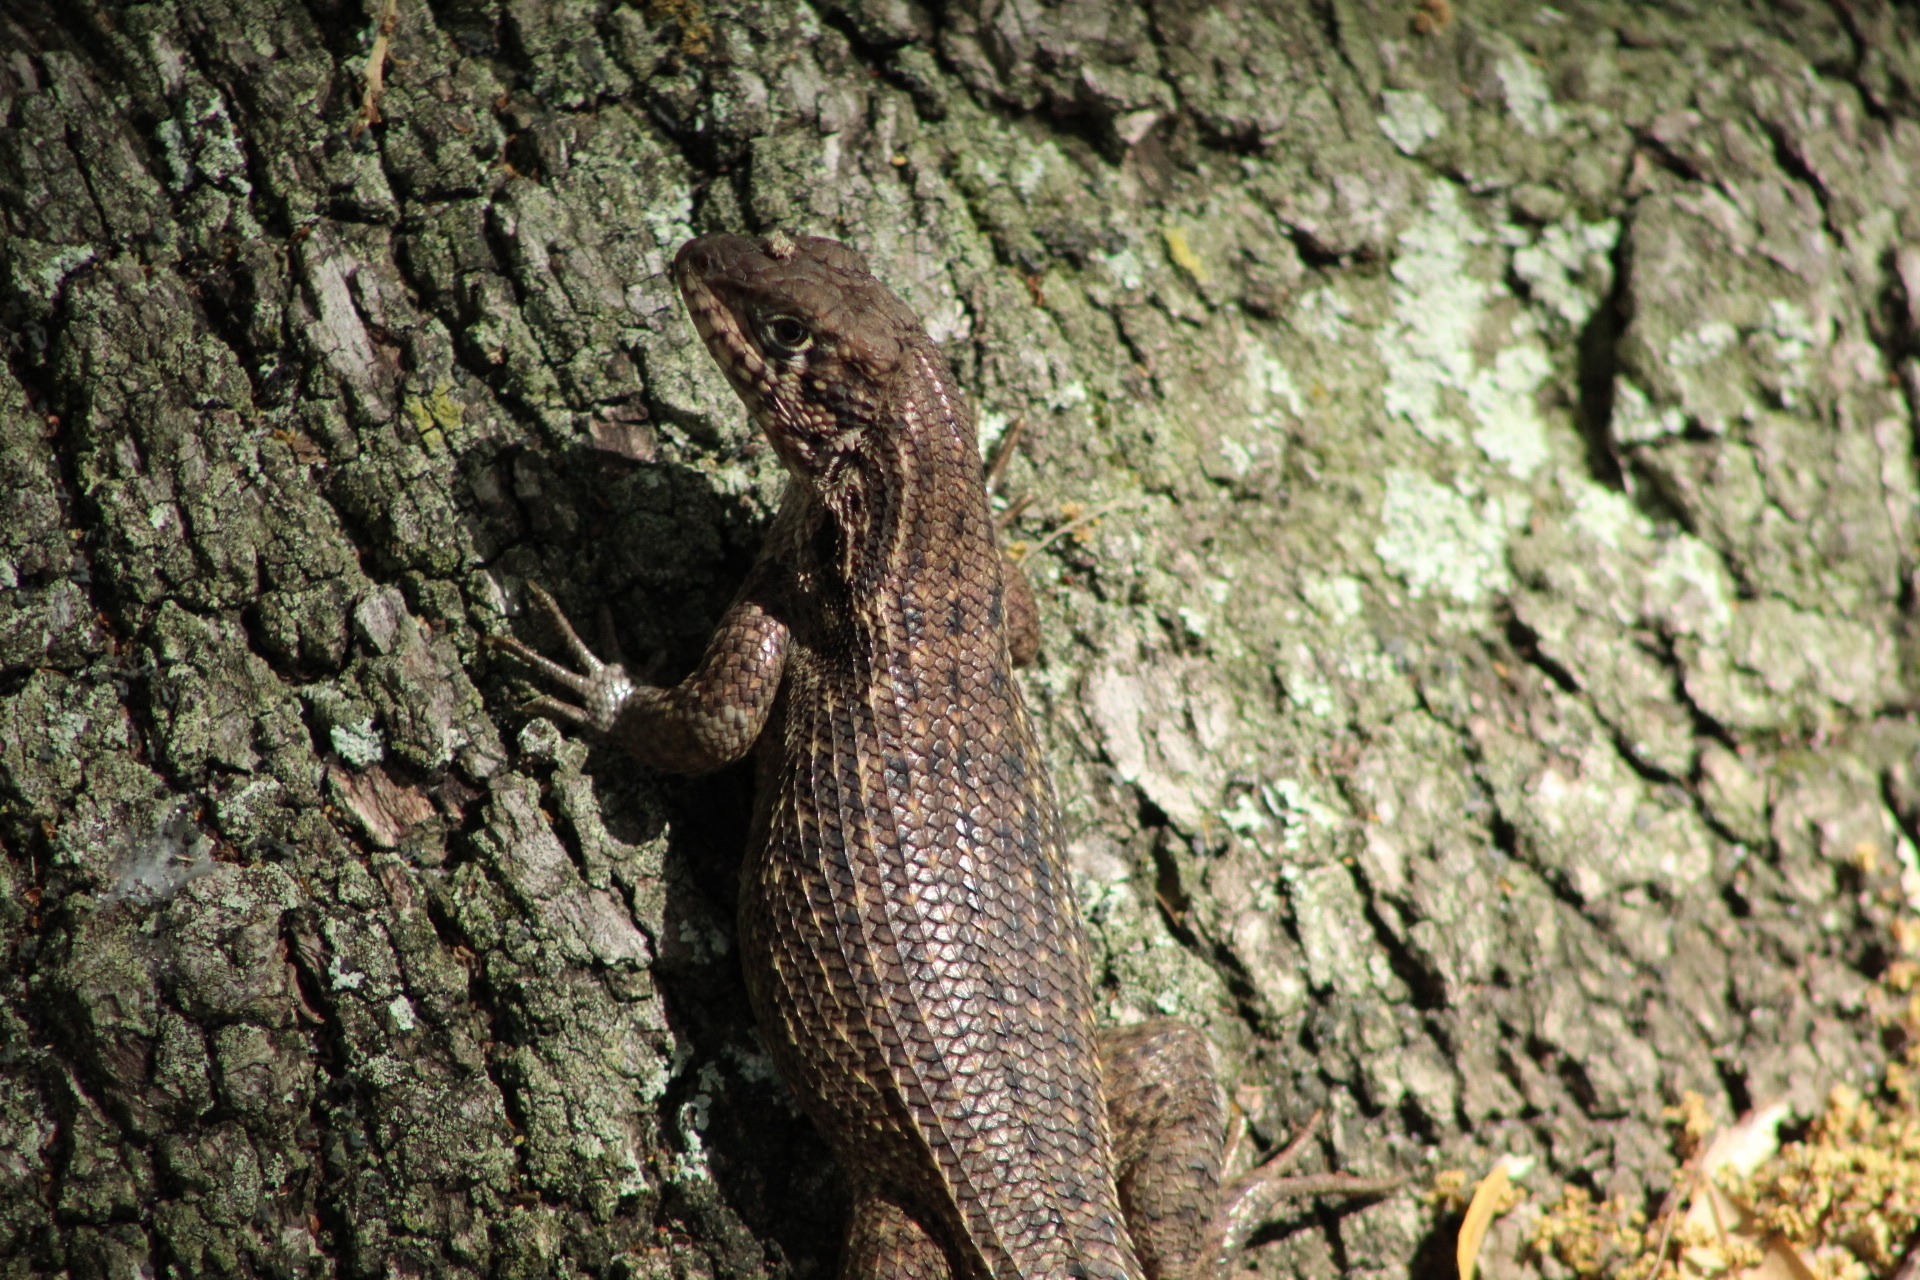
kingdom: Animalia
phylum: Chordata
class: Squamata
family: Leiocephalidae
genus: Leiocephalus
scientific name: Leiocephalus carinatus
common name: Northern curly-tailed lizard
